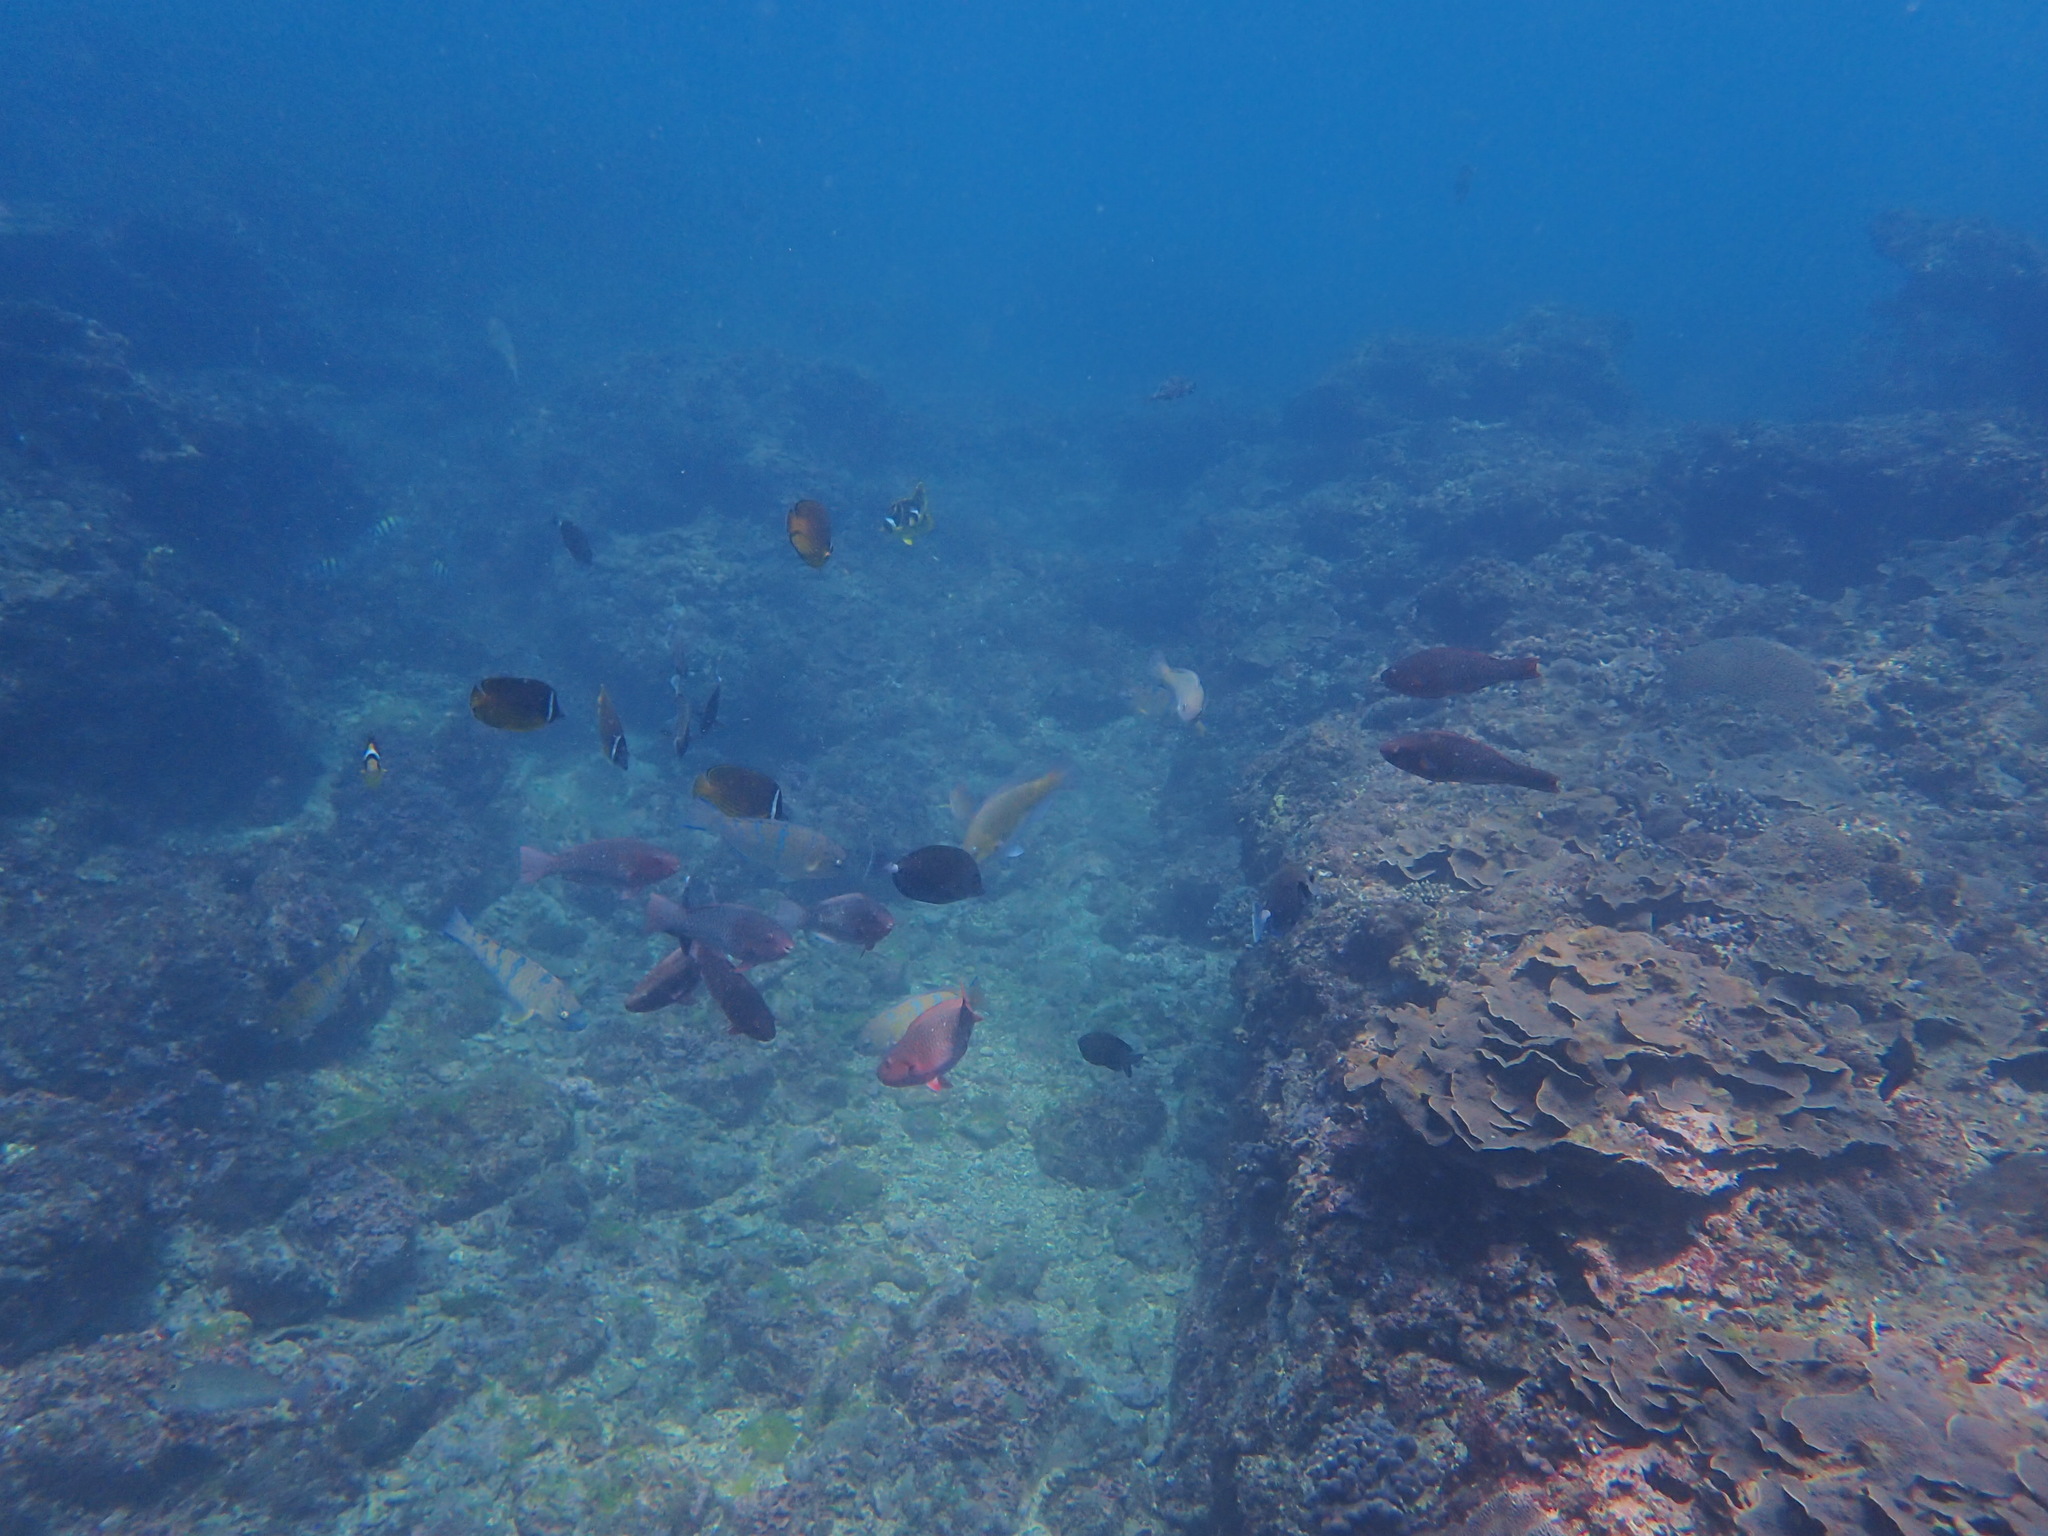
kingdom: Animalia
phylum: Chordata
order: Perciformes
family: Scaridae
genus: Scarus
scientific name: Scarus rubroviolaceus
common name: Ember parrotfish
